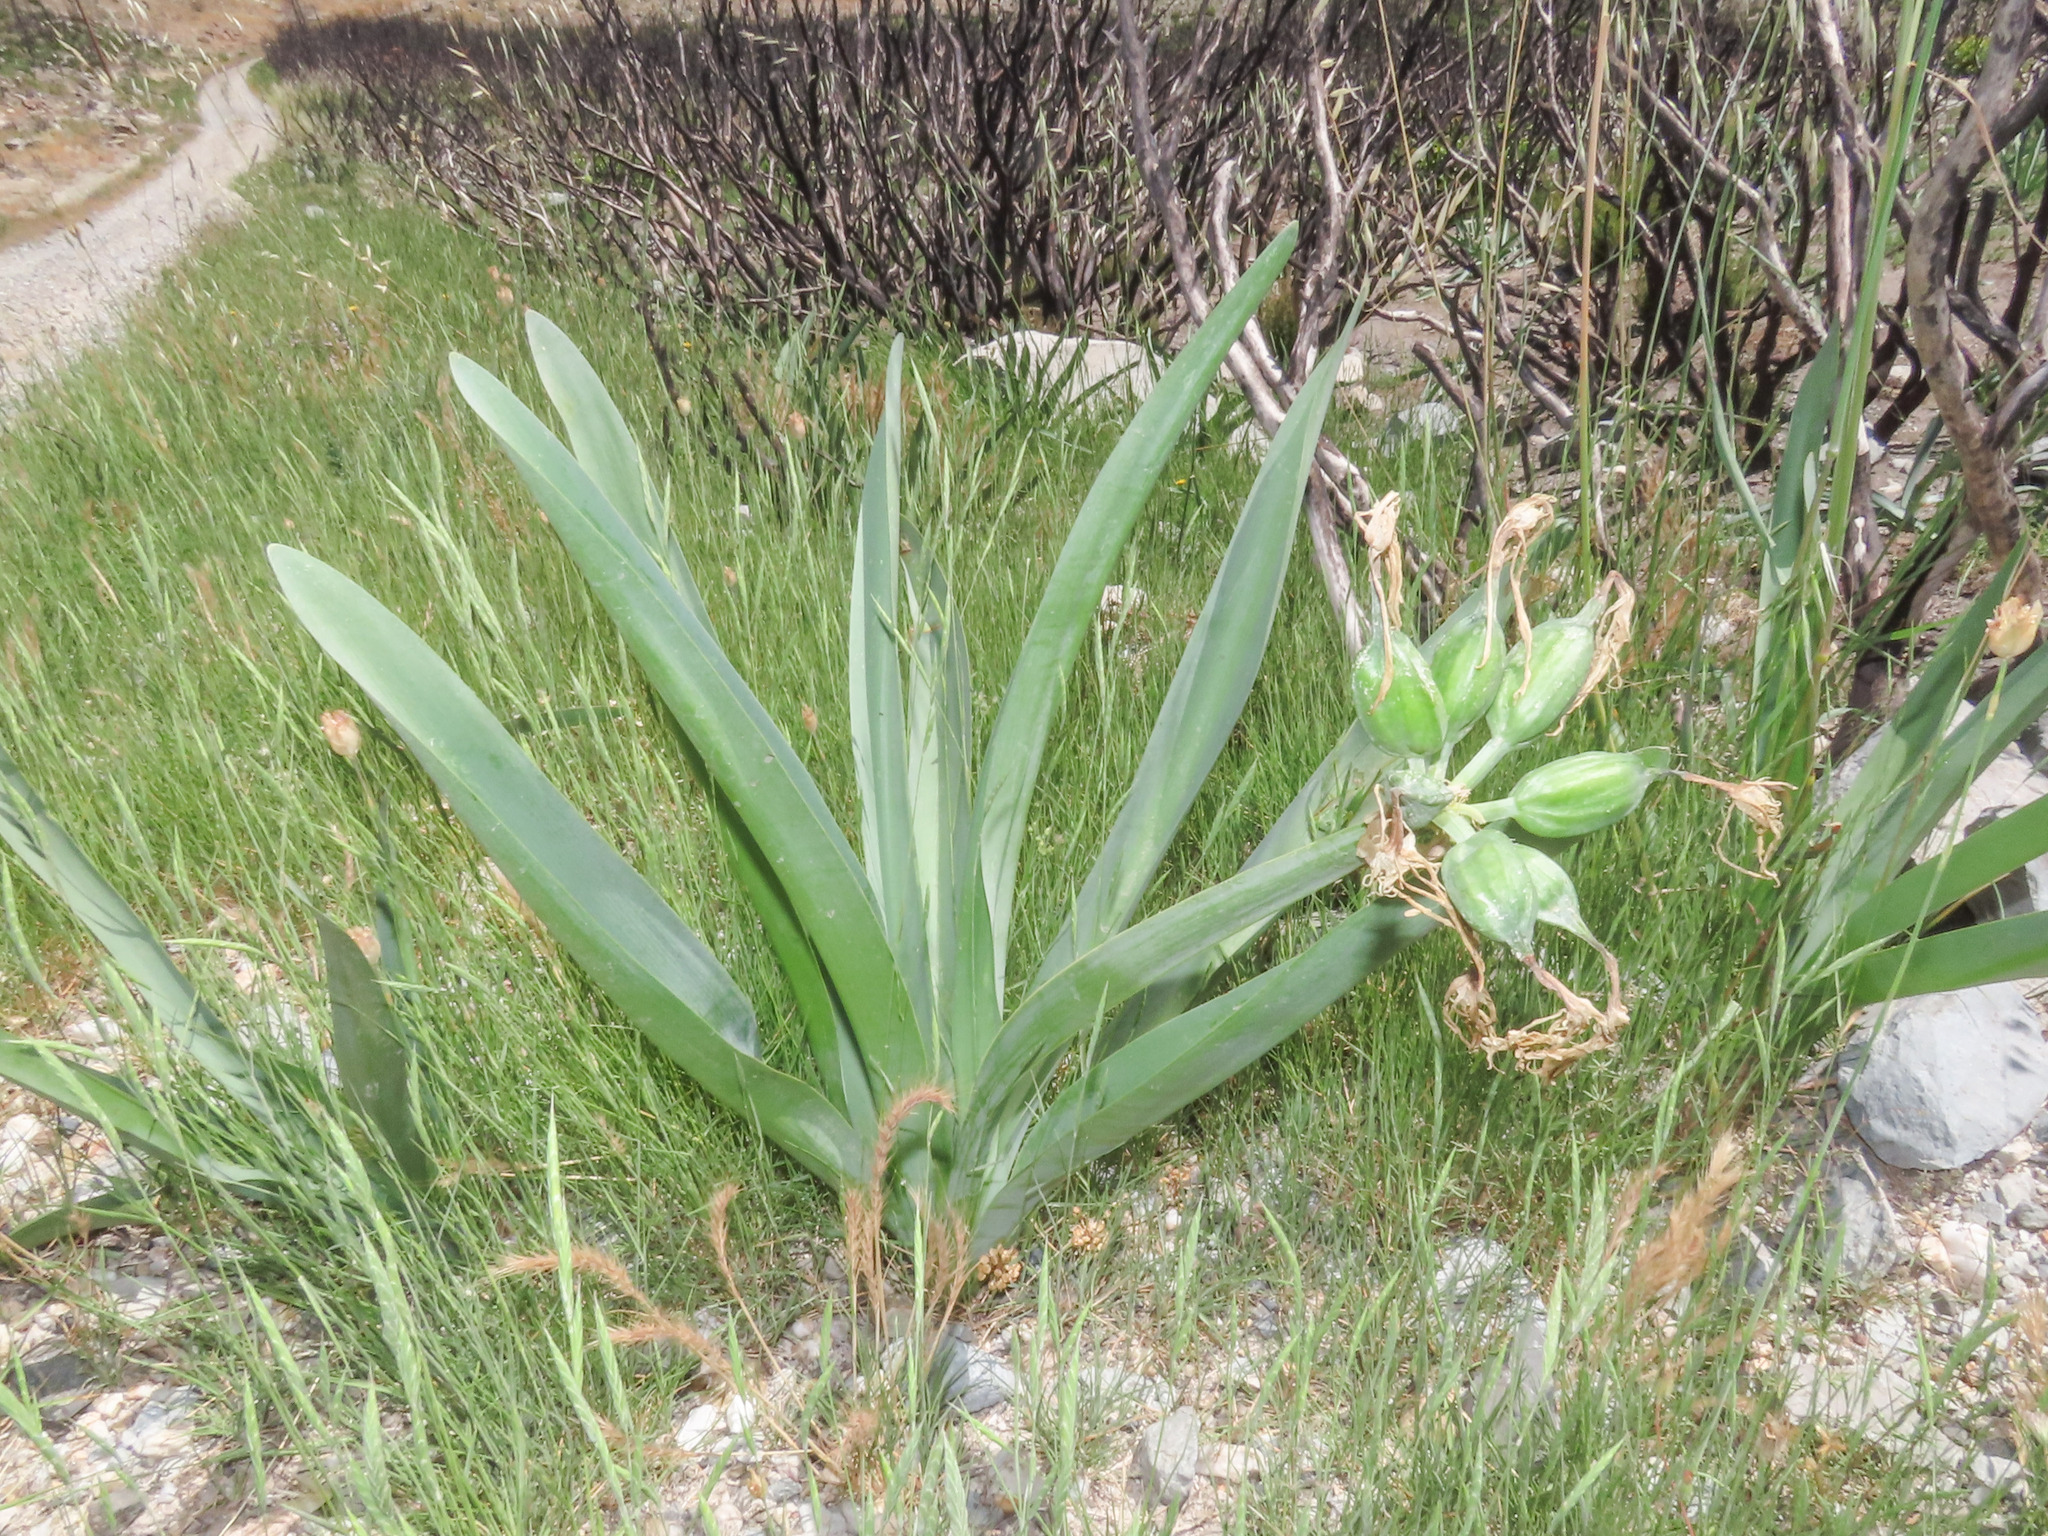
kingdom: Plantae
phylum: Tracheophyta
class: Liliopsida
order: Asparagales
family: Amaryllidaceae
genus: Pancratium
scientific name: Pancratium illyricum
